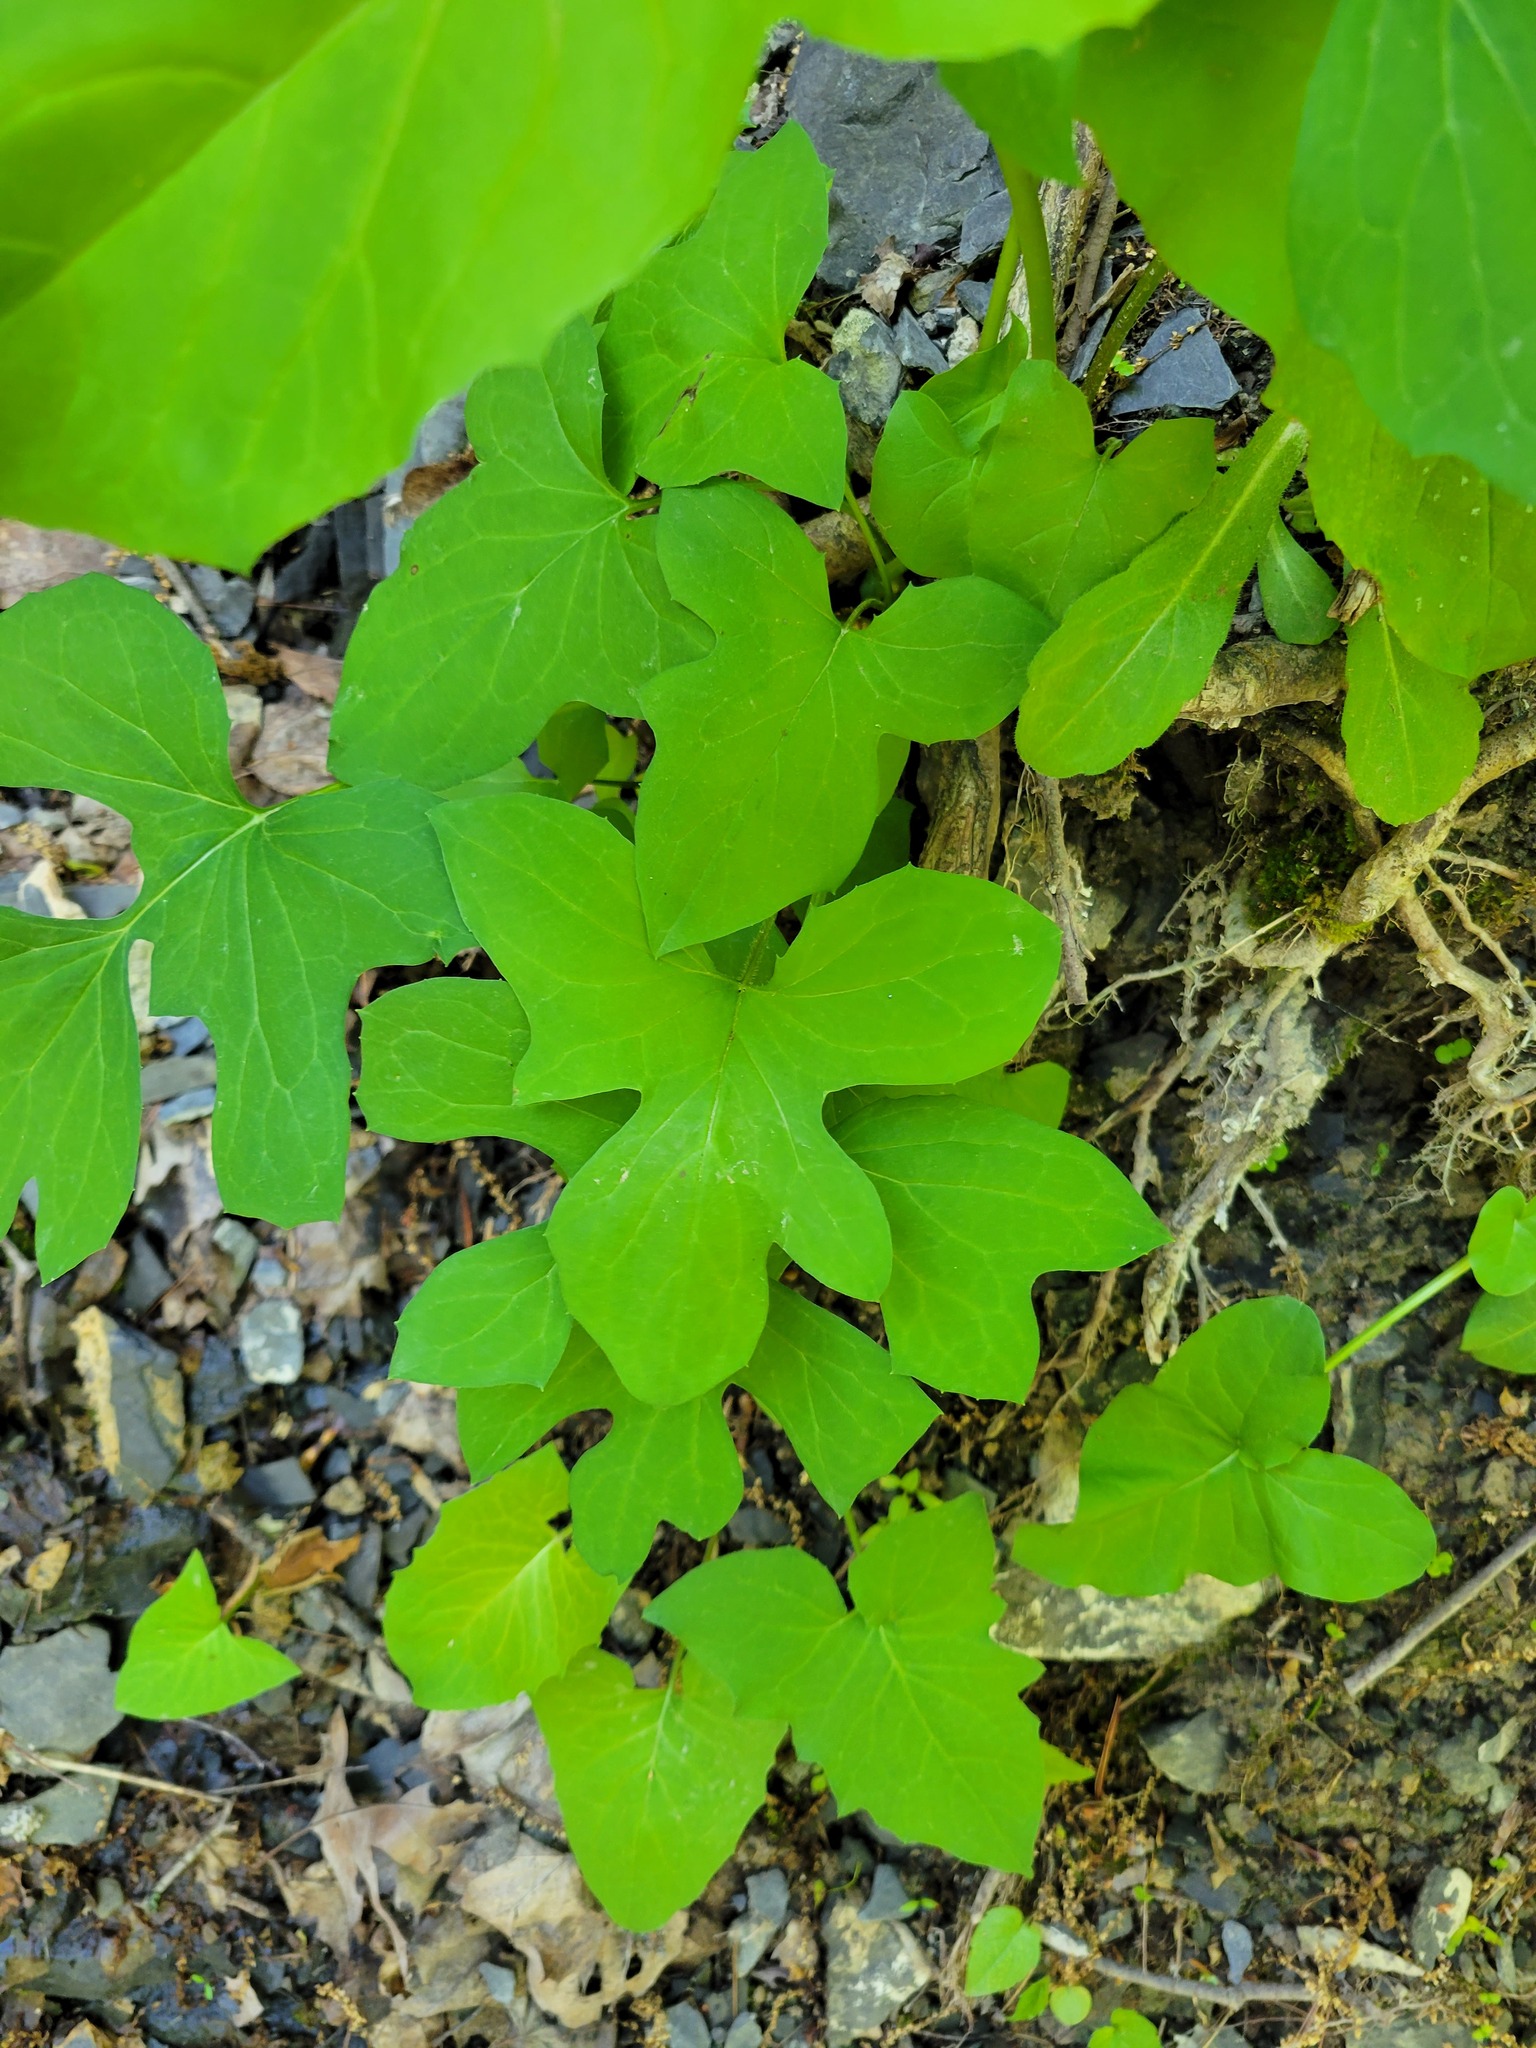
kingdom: Plantae
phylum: Tracheophyta
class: Magnoliopsida
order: Asterales
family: Asteraceae
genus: Nabalus
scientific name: Nabalus
